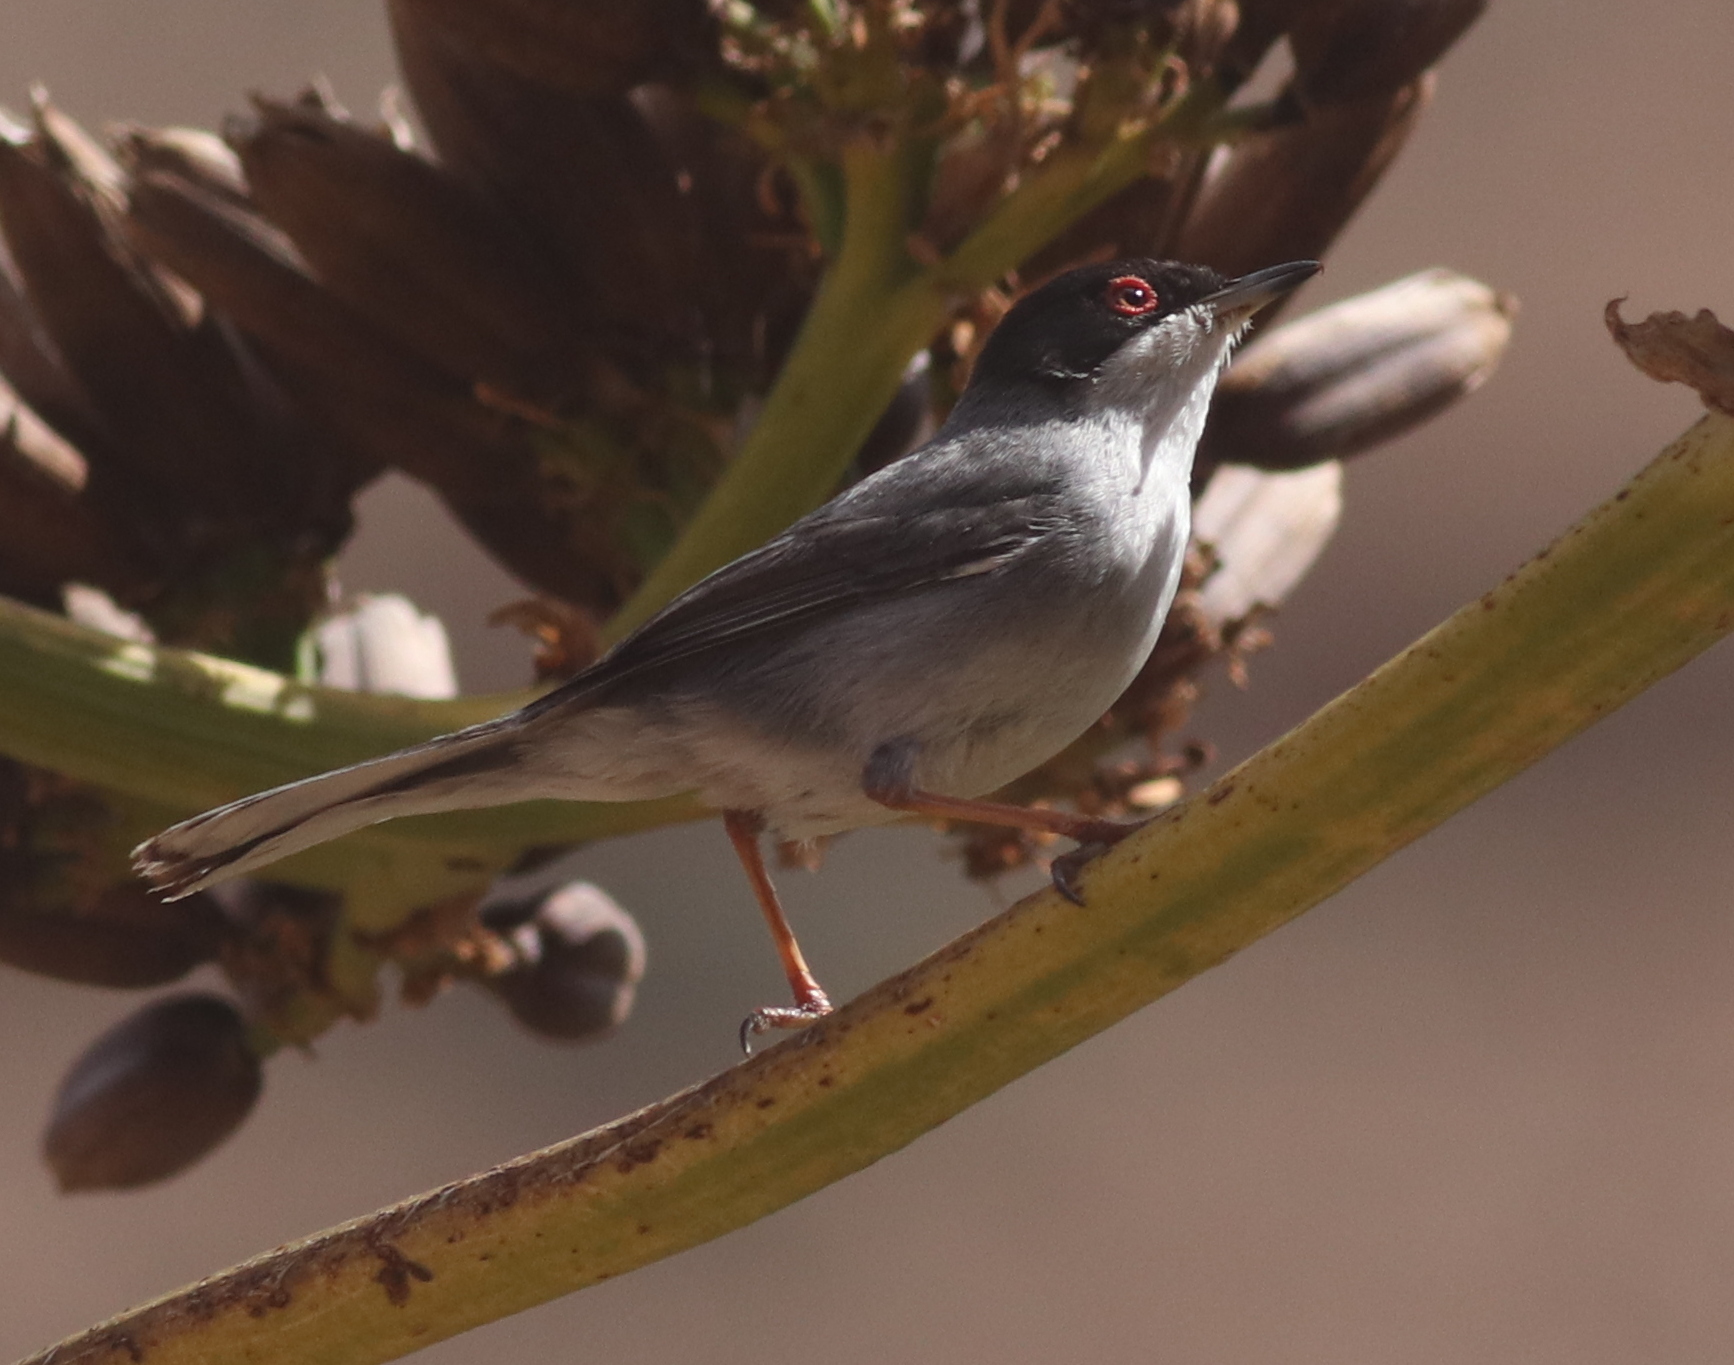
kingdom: Animalia
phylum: Chordata
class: Aves
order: Passeriformes
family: Sylviidae
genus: Curruca
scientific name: Curruca melanocephala
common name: Sardinian warbler
